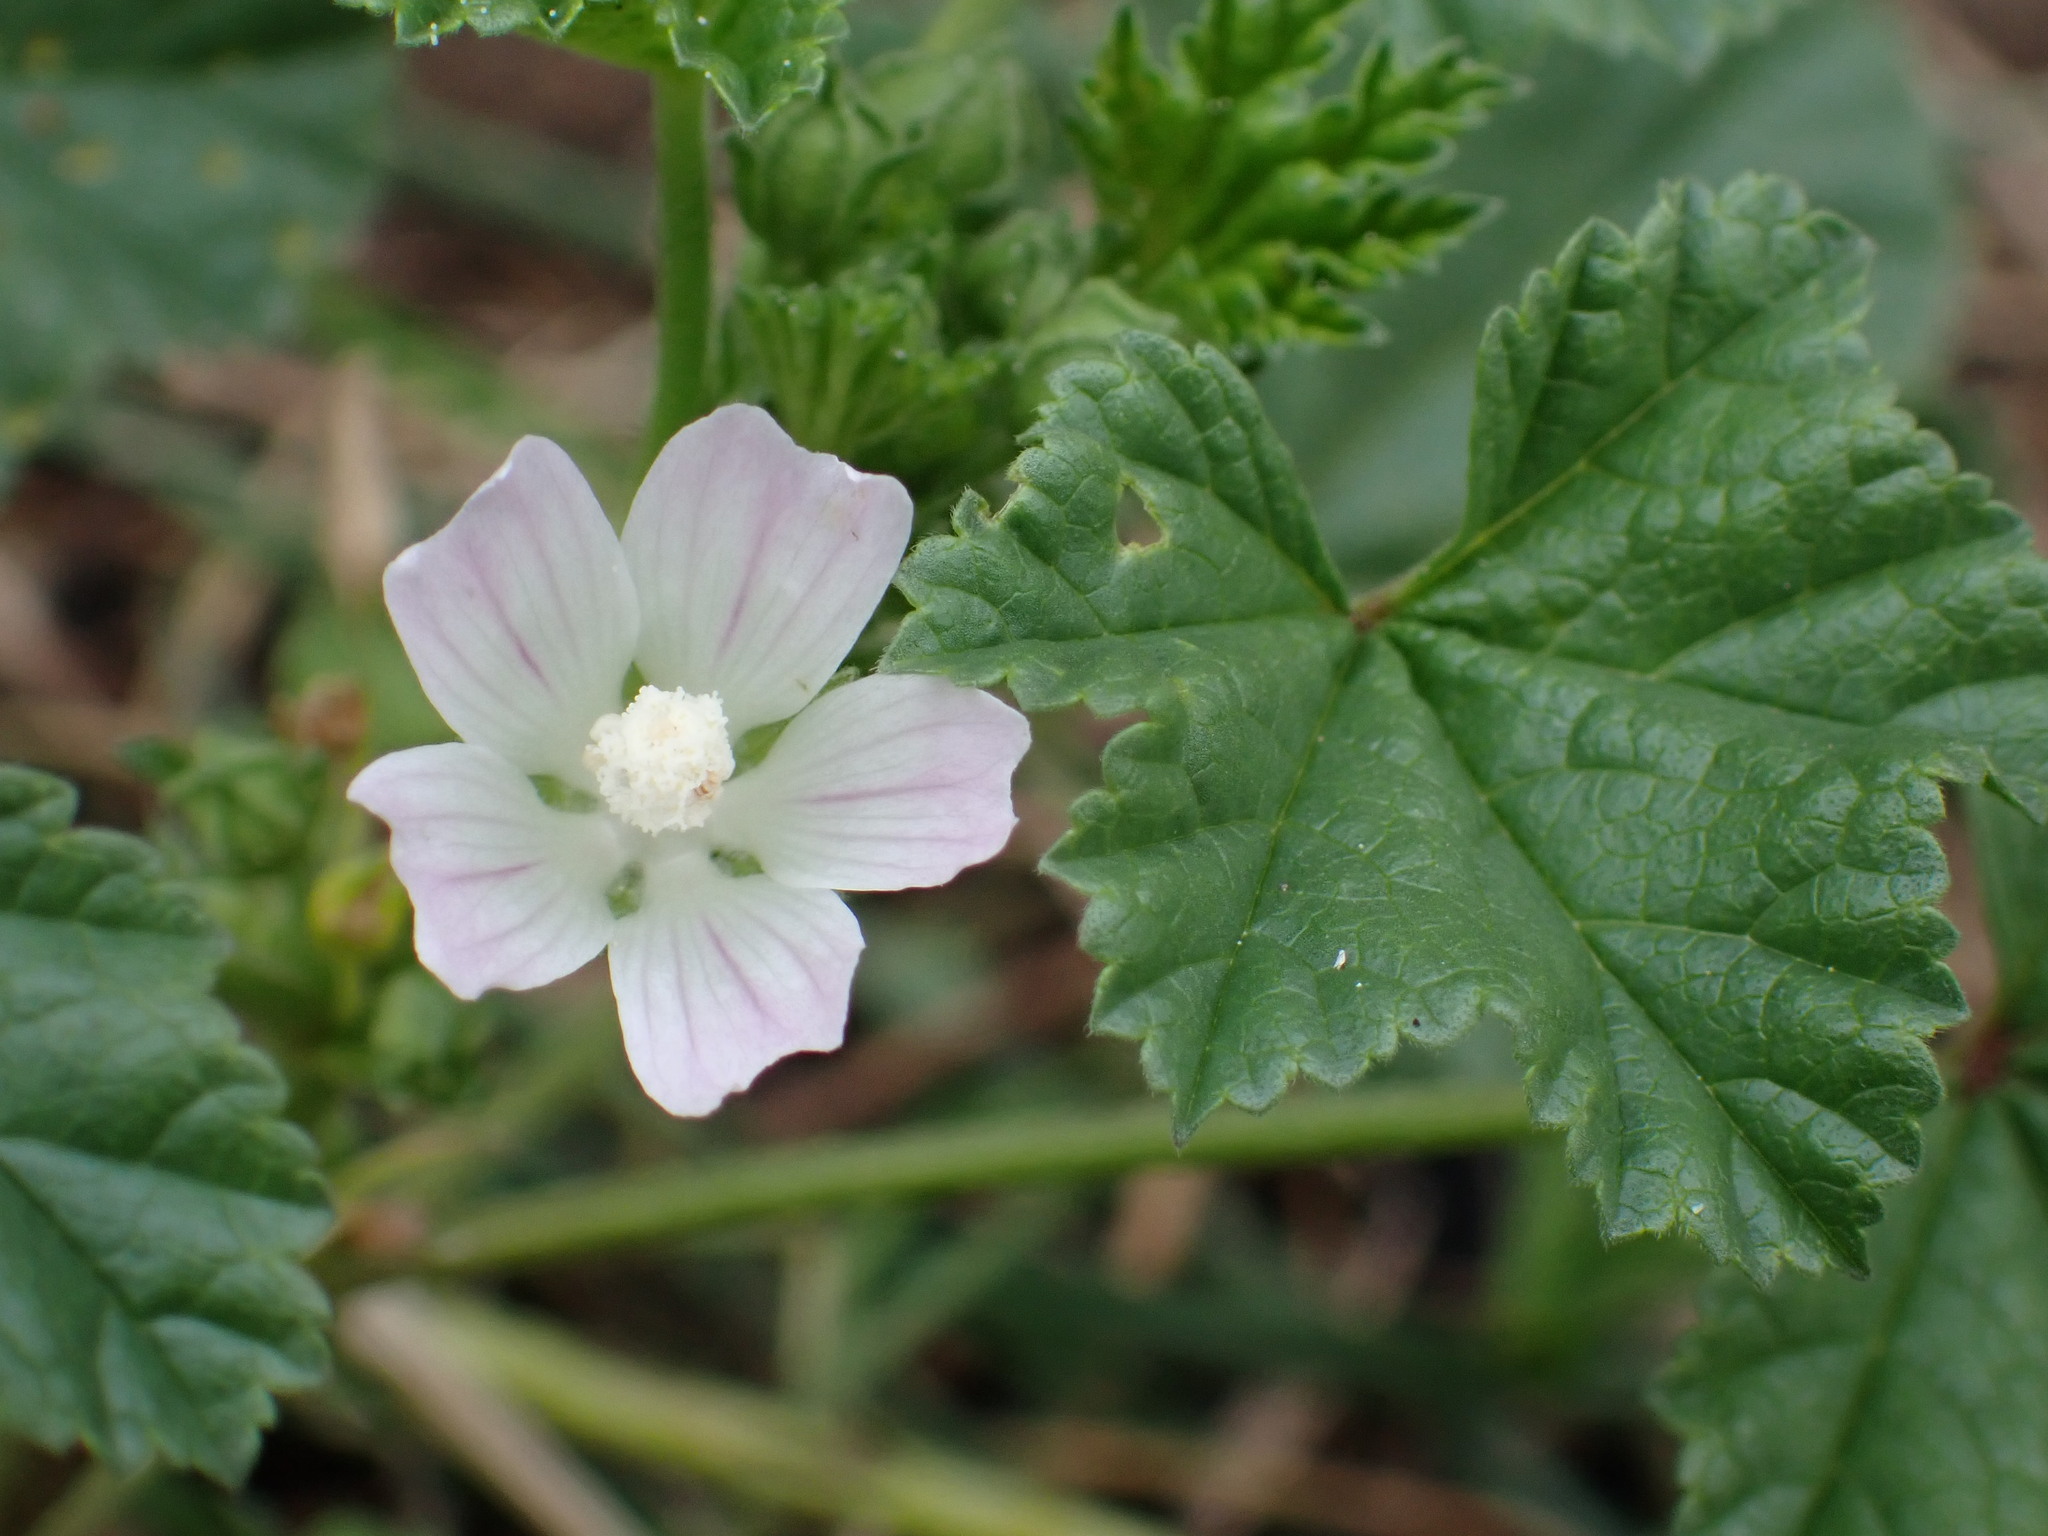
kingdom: Plantae
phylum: Tracheophyta
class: Magnoliopsida
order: Malvales
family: Malvaceae
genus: Malva
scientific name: Malva neglecta
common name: Common mallow
